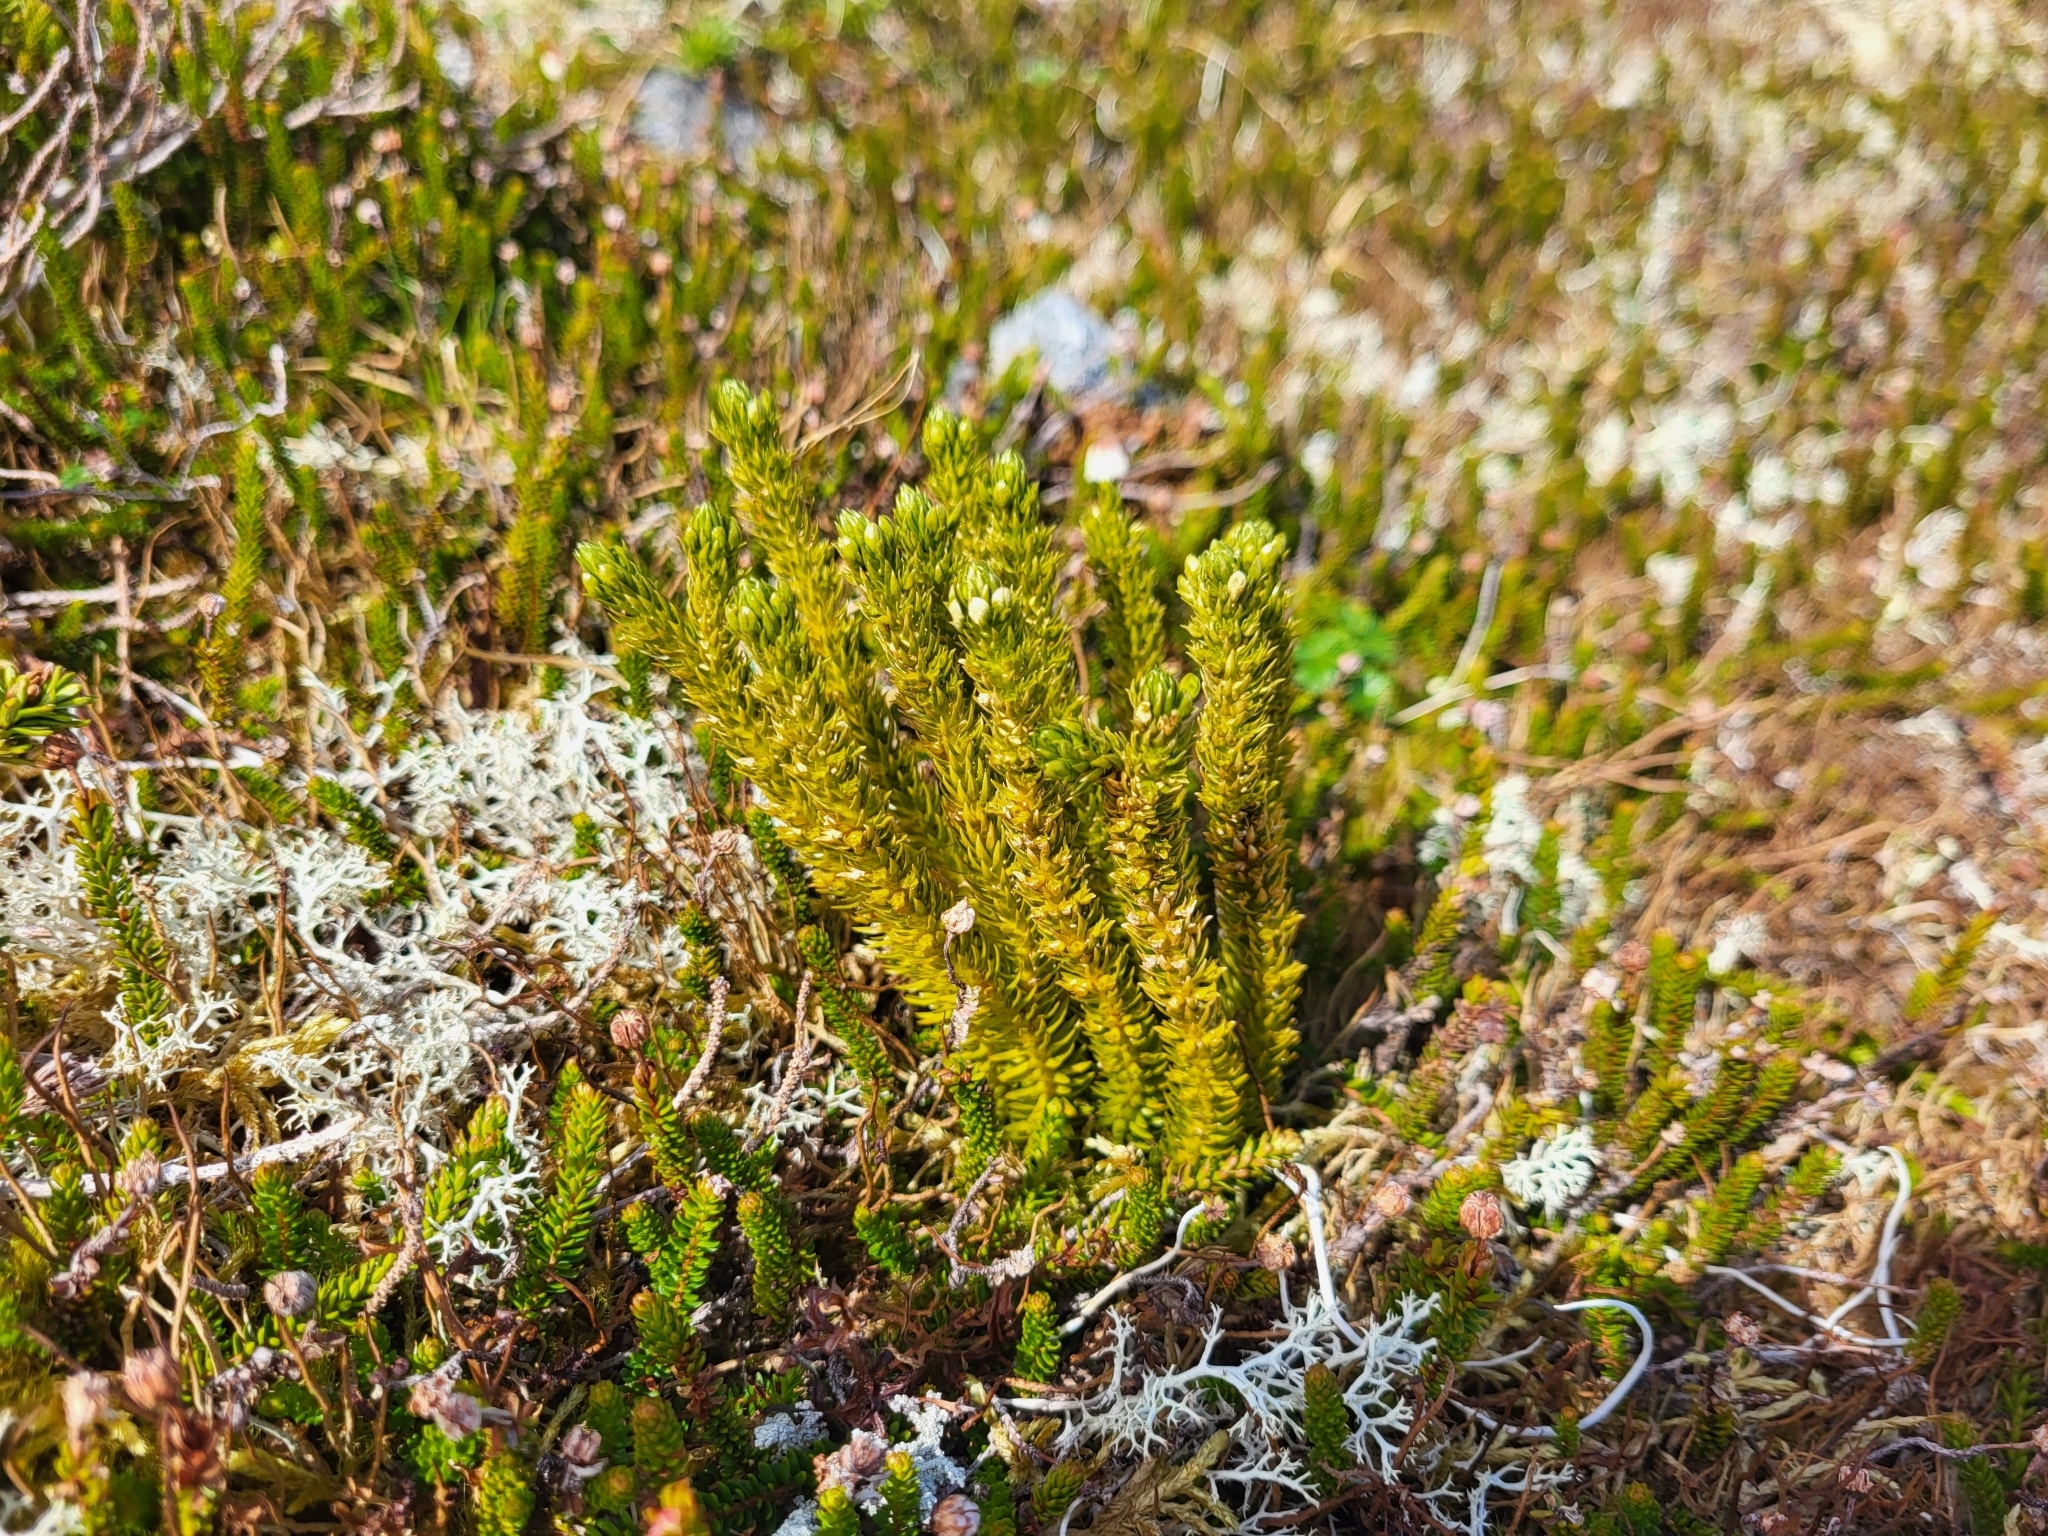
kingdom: Plantae
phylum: Tracheophyta
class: Lycopodiopsida
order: Lycopodiales
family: Lycopodiaceae
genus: Huperzia
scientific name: Huperzia continentalis
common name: Continental firmoss
